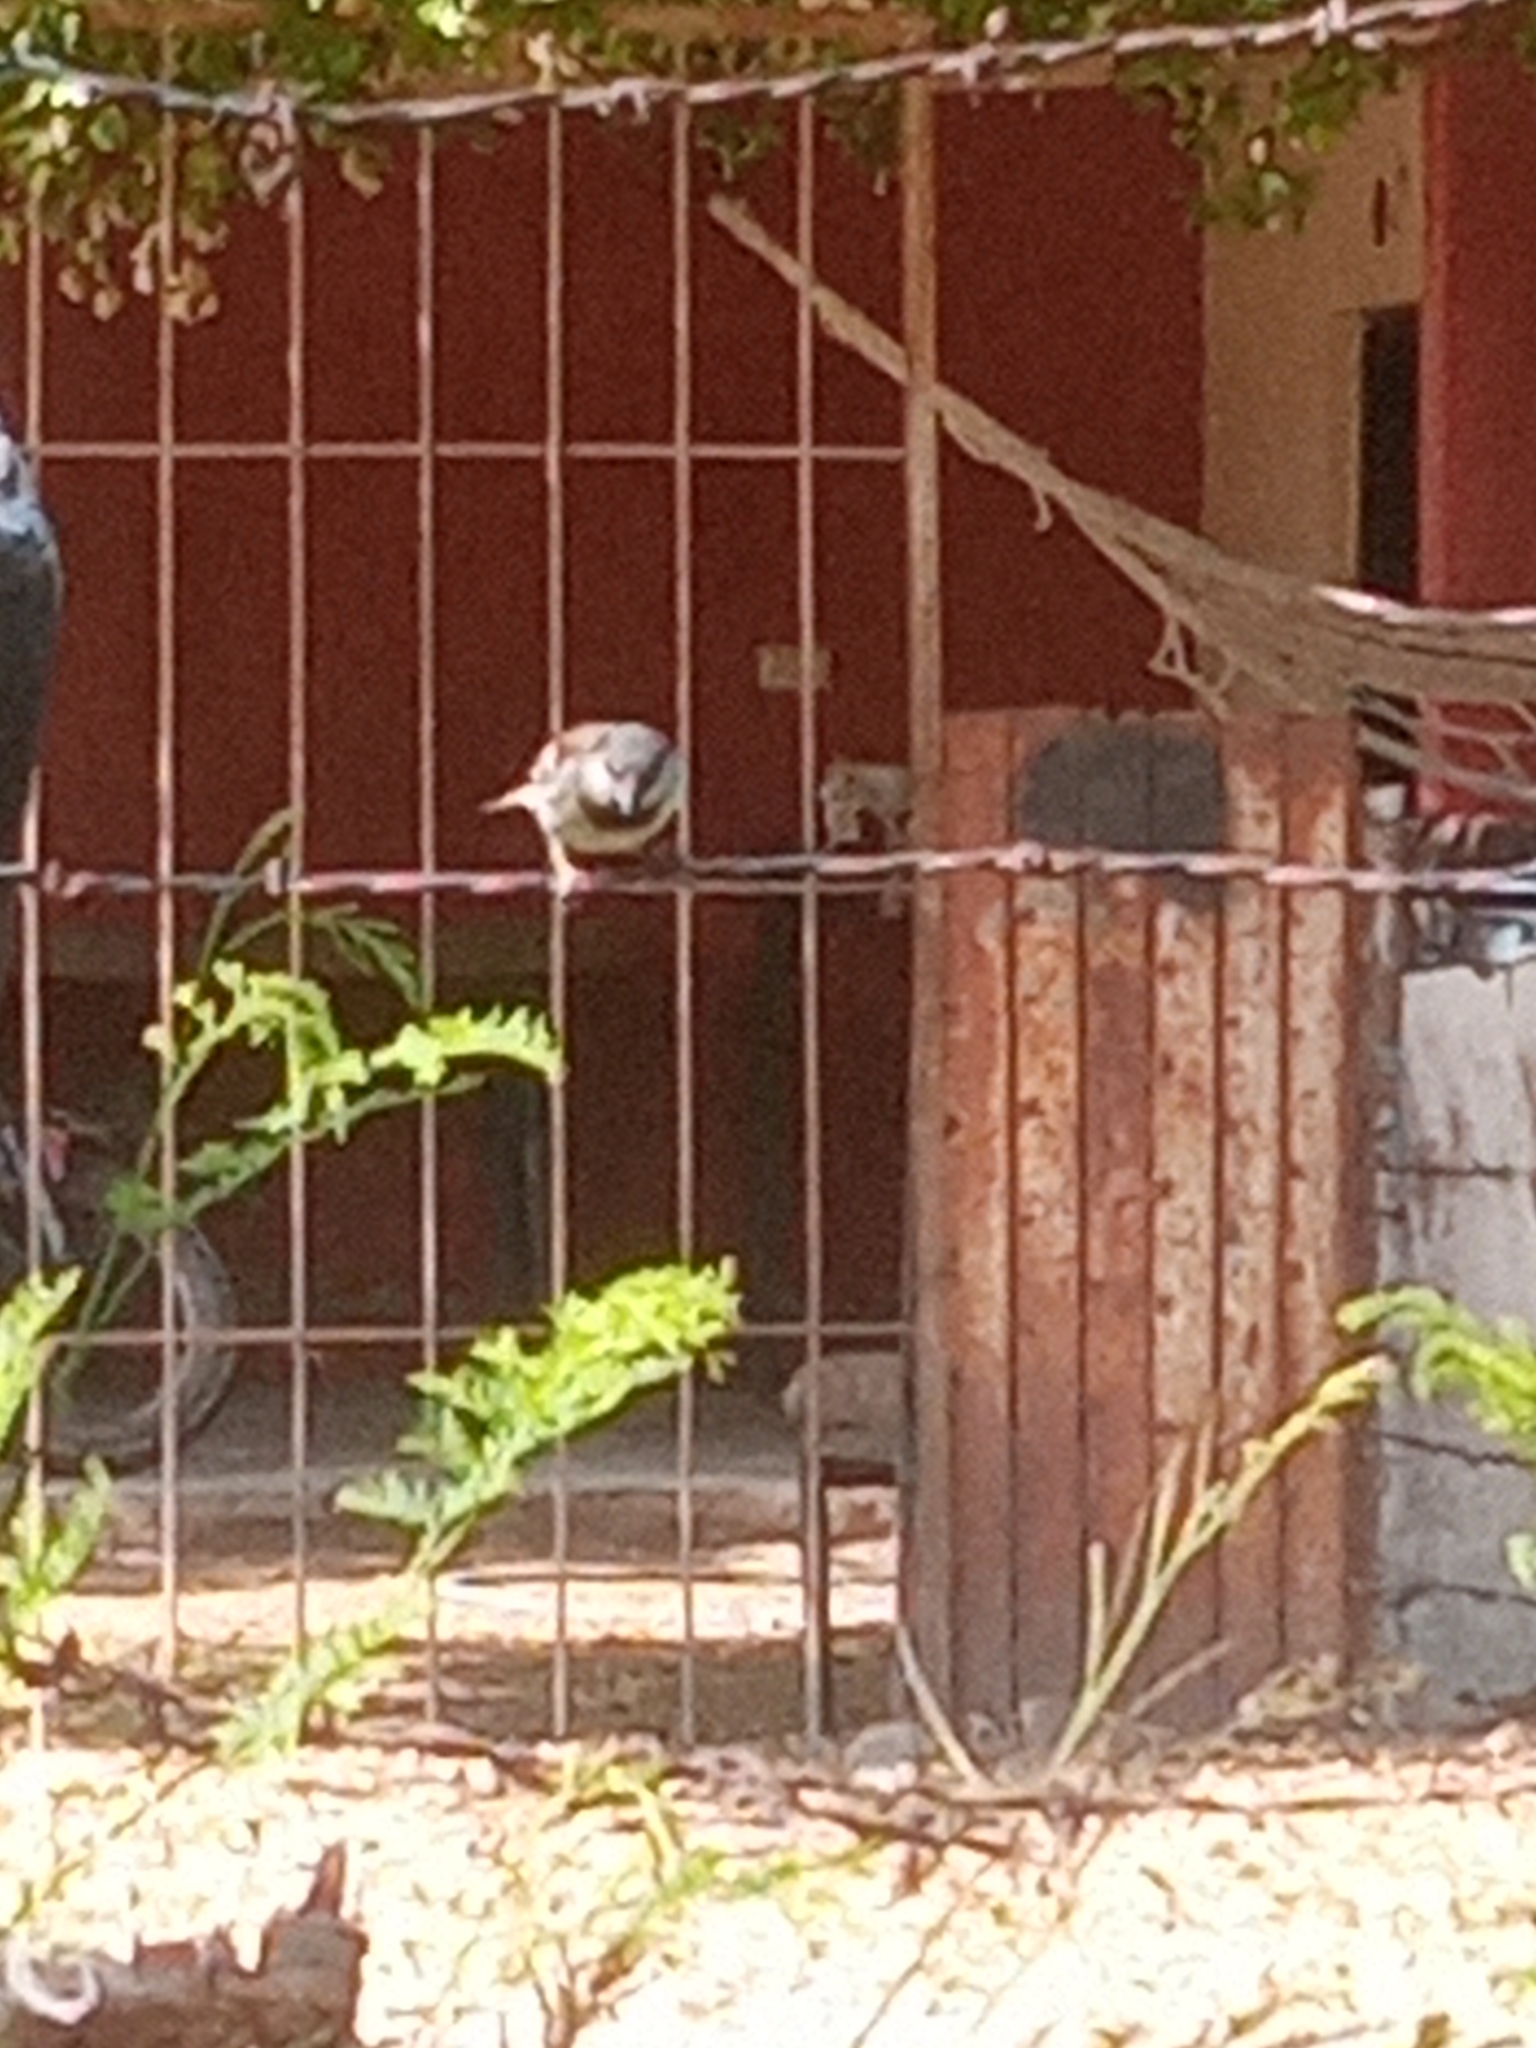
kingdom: Animalia
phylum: Chordata
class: Aves
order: Passeriformes
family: Passeridae
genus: Passer
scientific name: Passer domesticus
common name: House sparrow
